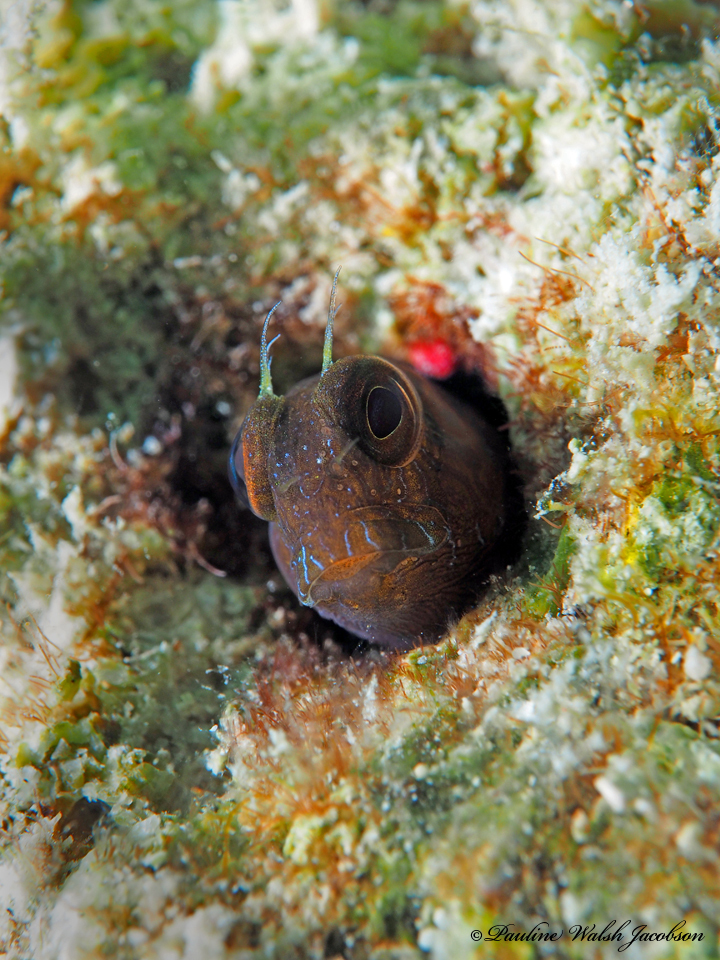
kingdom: Animalia
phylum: Chordata
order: Perciformes
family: Blenniidae
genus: Parablennius
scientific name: Parablennius marmoreus
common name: Seaweed blenny
